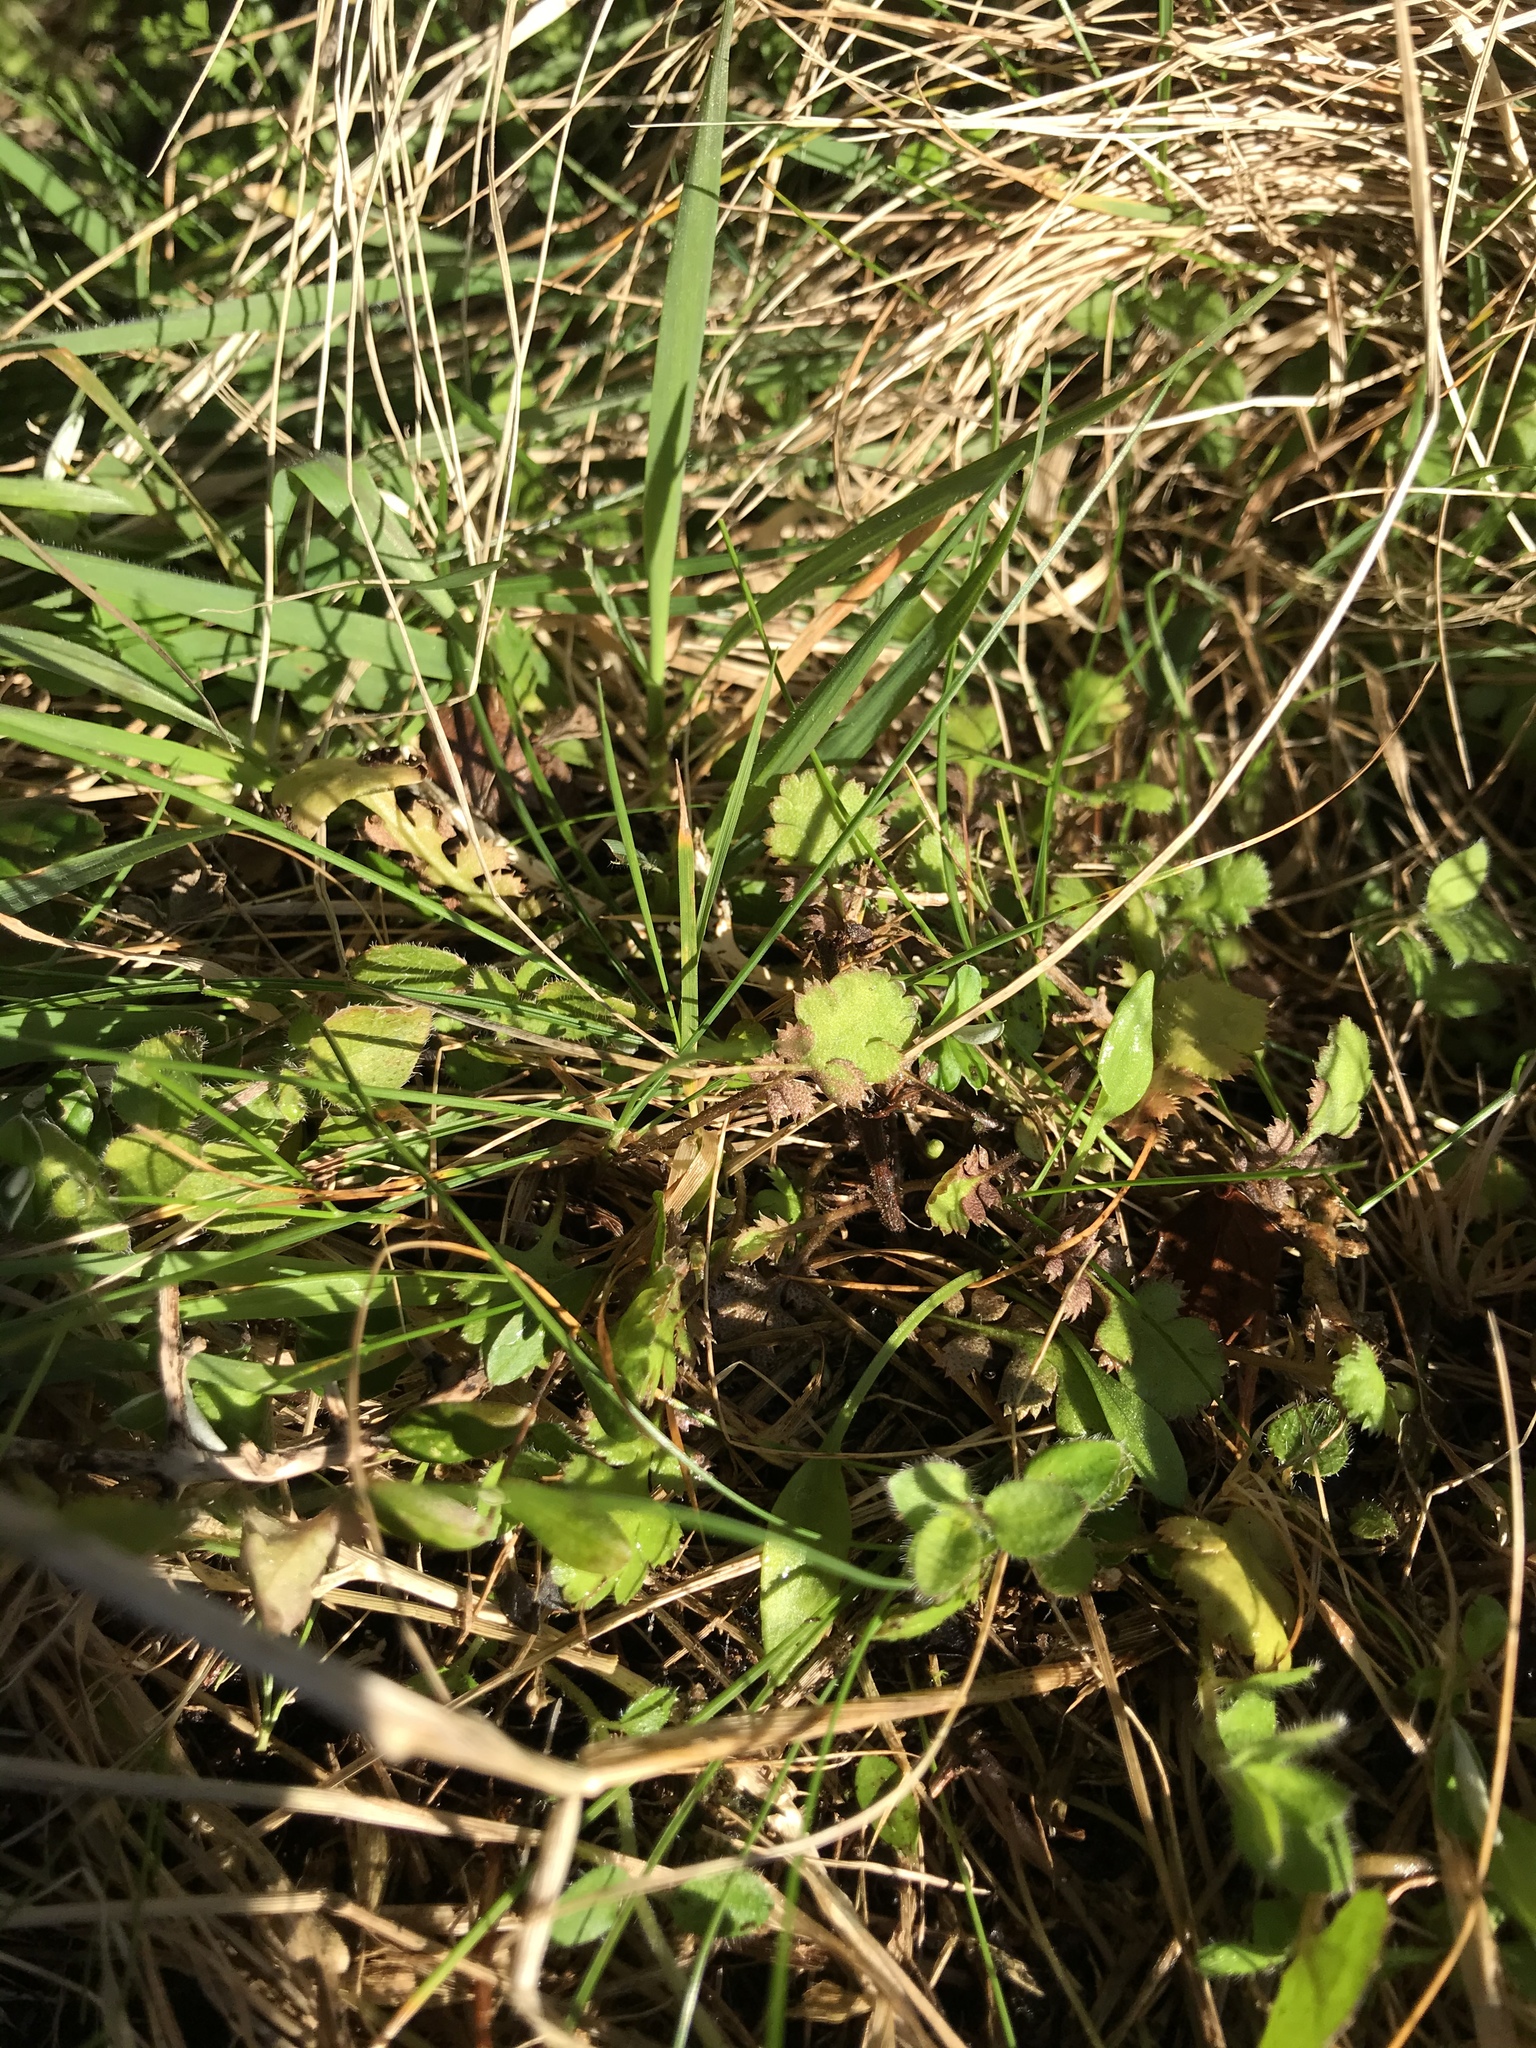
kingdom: Plantae
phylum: Tracheophyta
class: Magnoliopsida
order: Asterales
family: Asteraceae
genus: Leptinella
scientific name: Leptinella squalida
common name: New zealand brass-buttons
